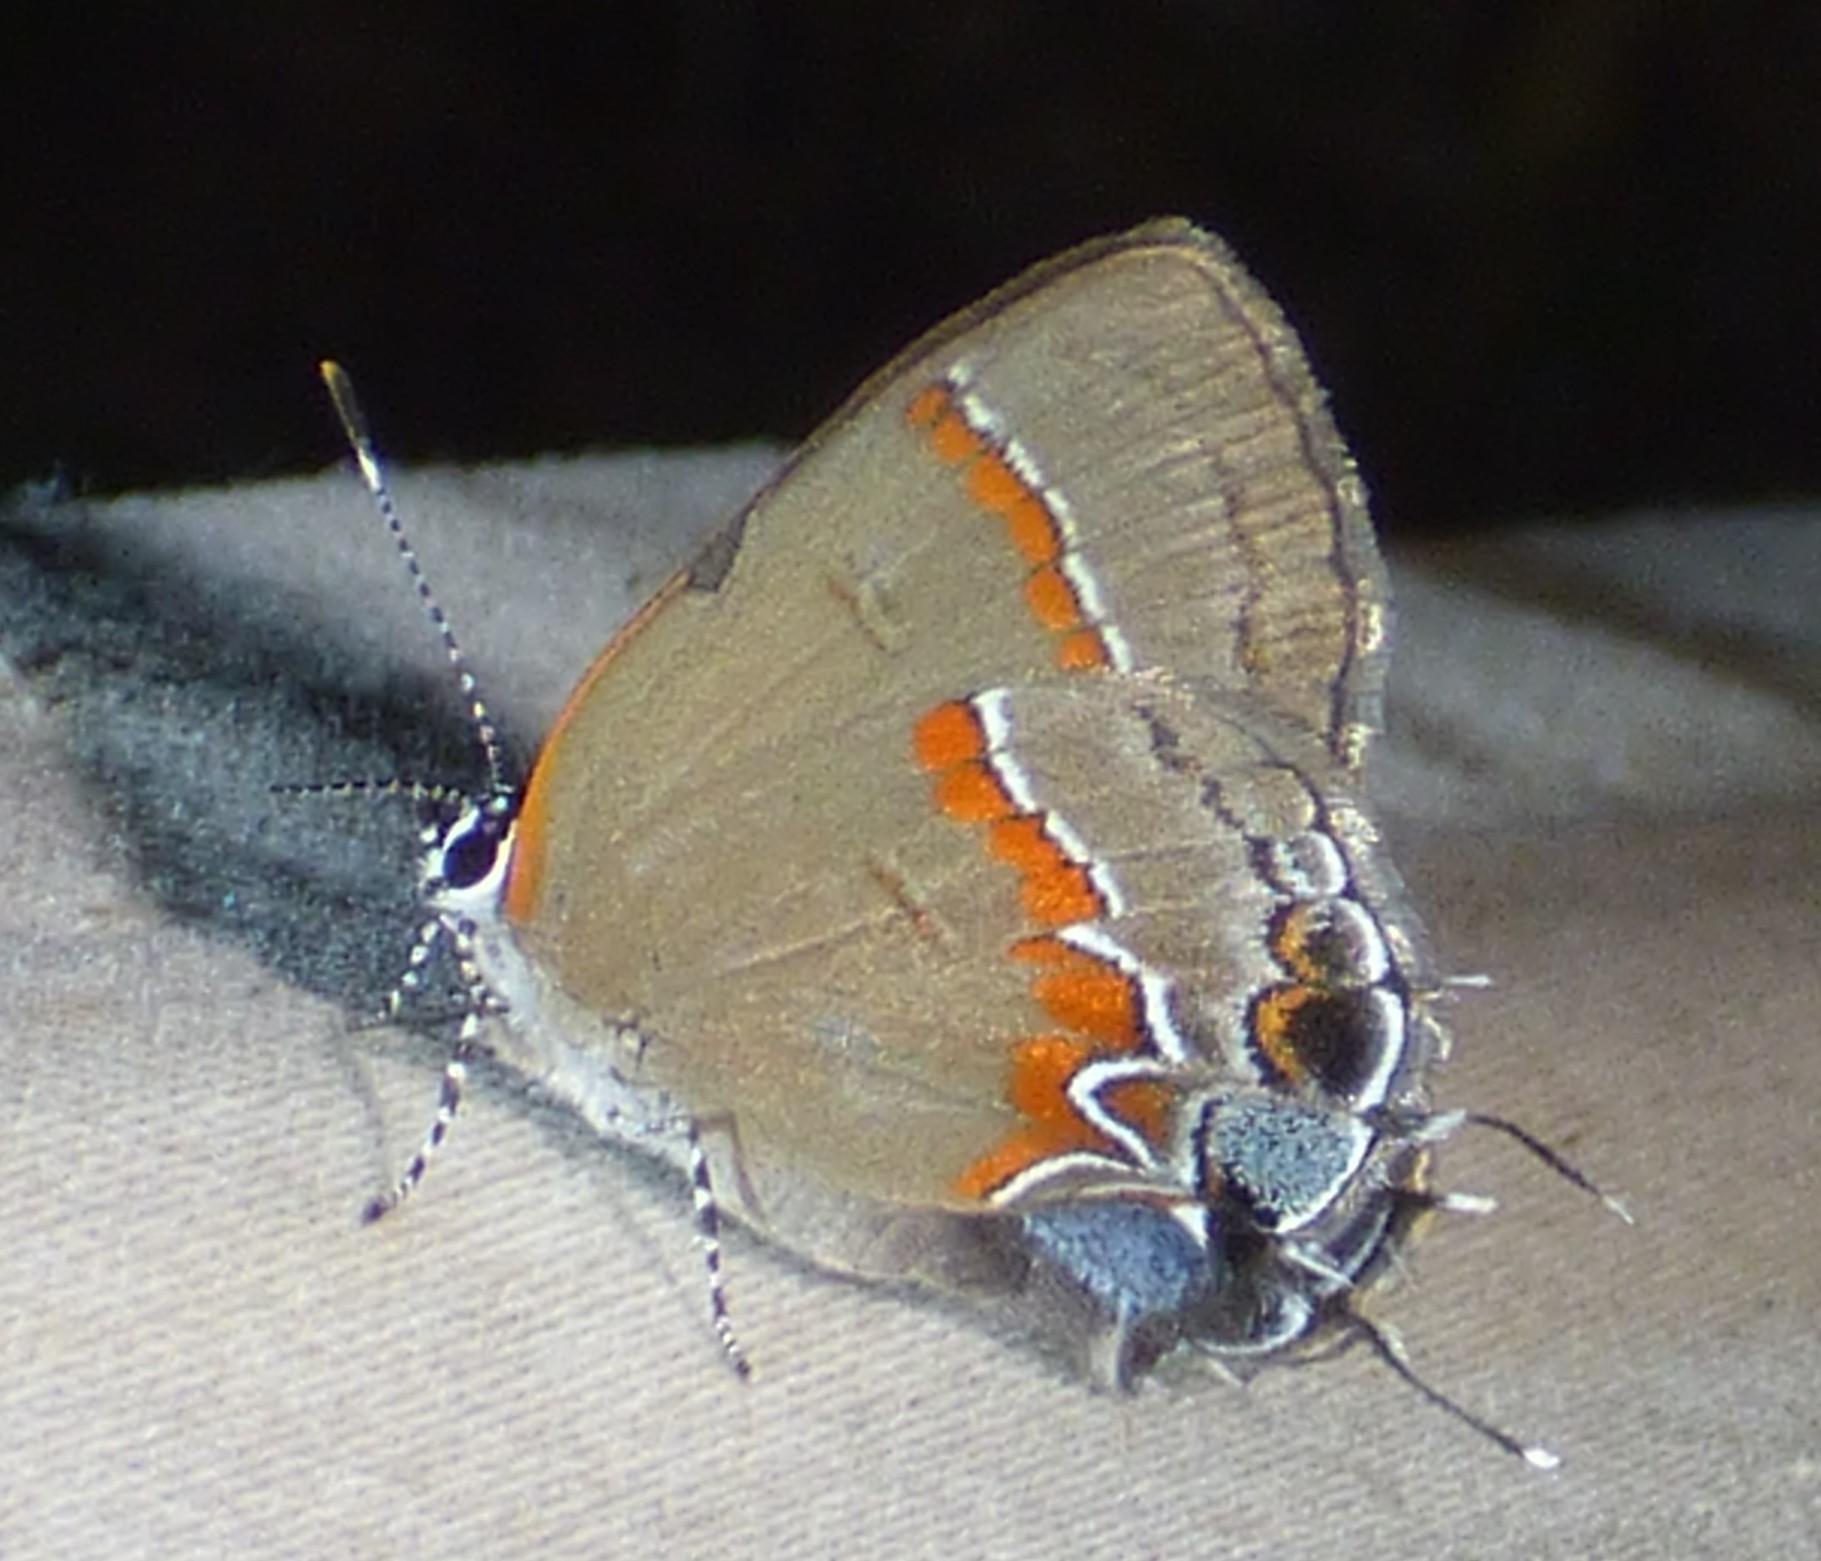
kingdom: Animalia
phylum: Arthropoda
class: Insecta
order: Lepidoptera
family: Lycaenidae
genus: Calycopis
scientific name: Calycopis cecrops
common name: Red-banded hairstreak
